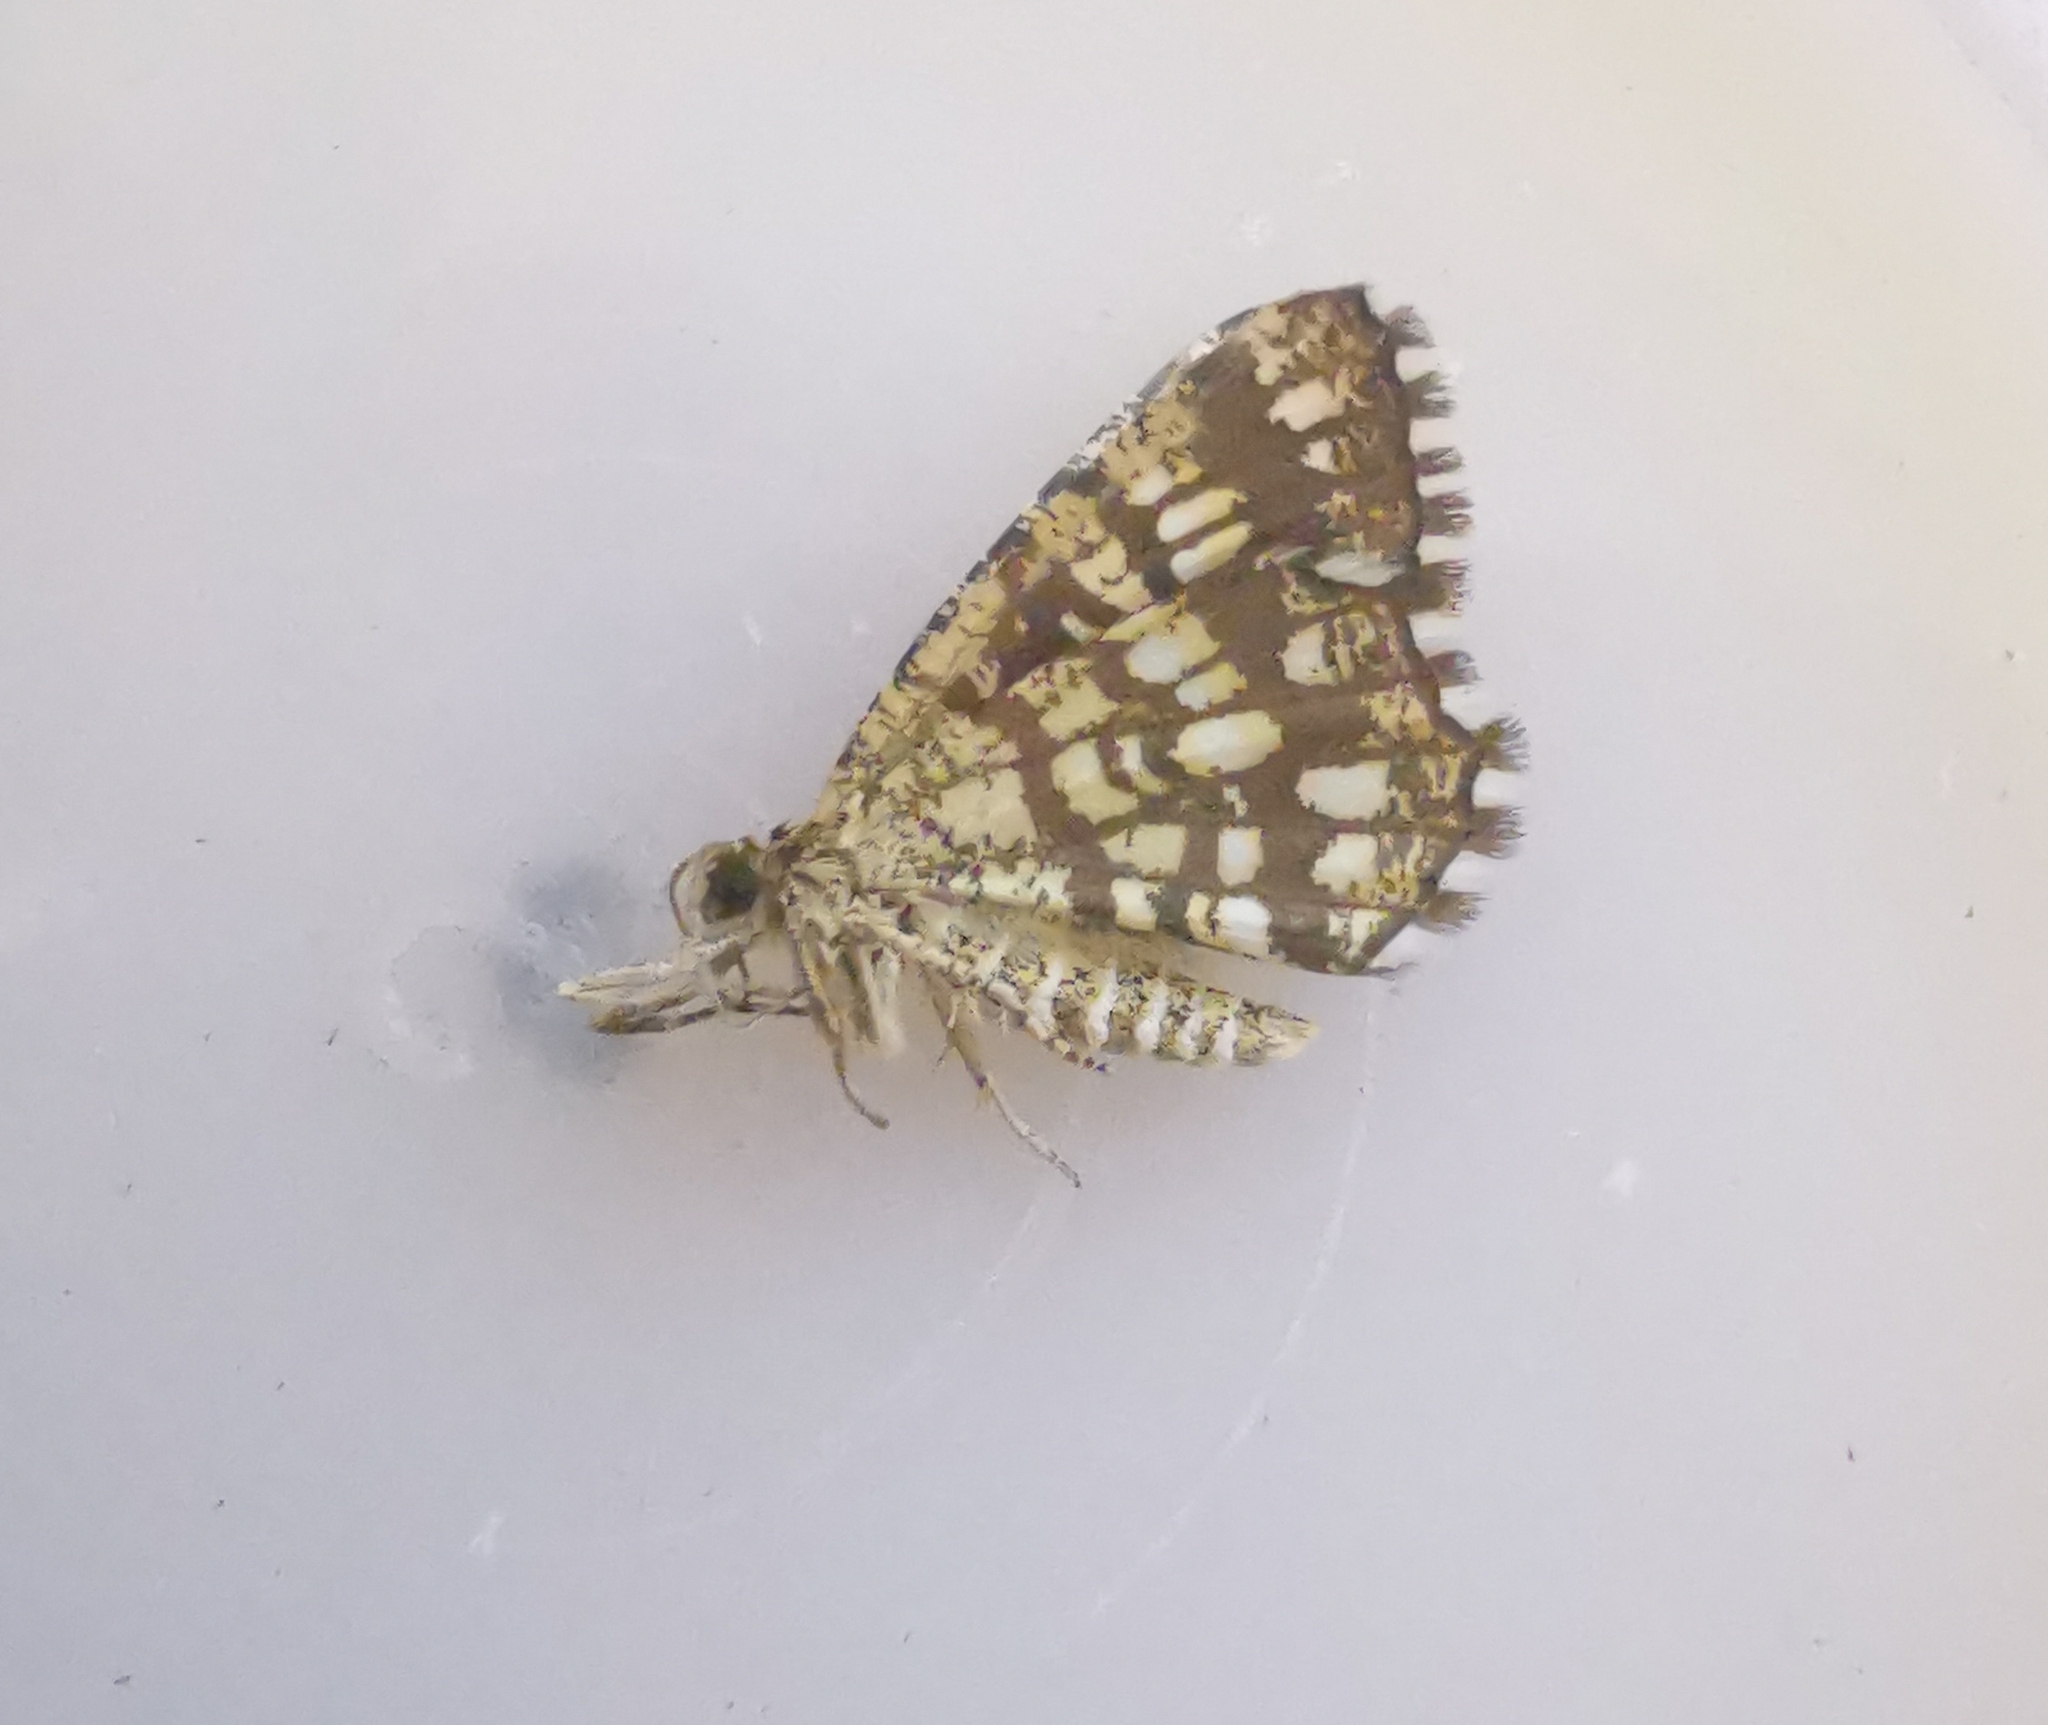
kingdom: Animalia
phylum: Arthropoda
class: Insecta
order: Lepidoptera
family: Geometridae
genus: Chiasmia
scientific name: Chiasmia clathrata
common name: Latticed heath
